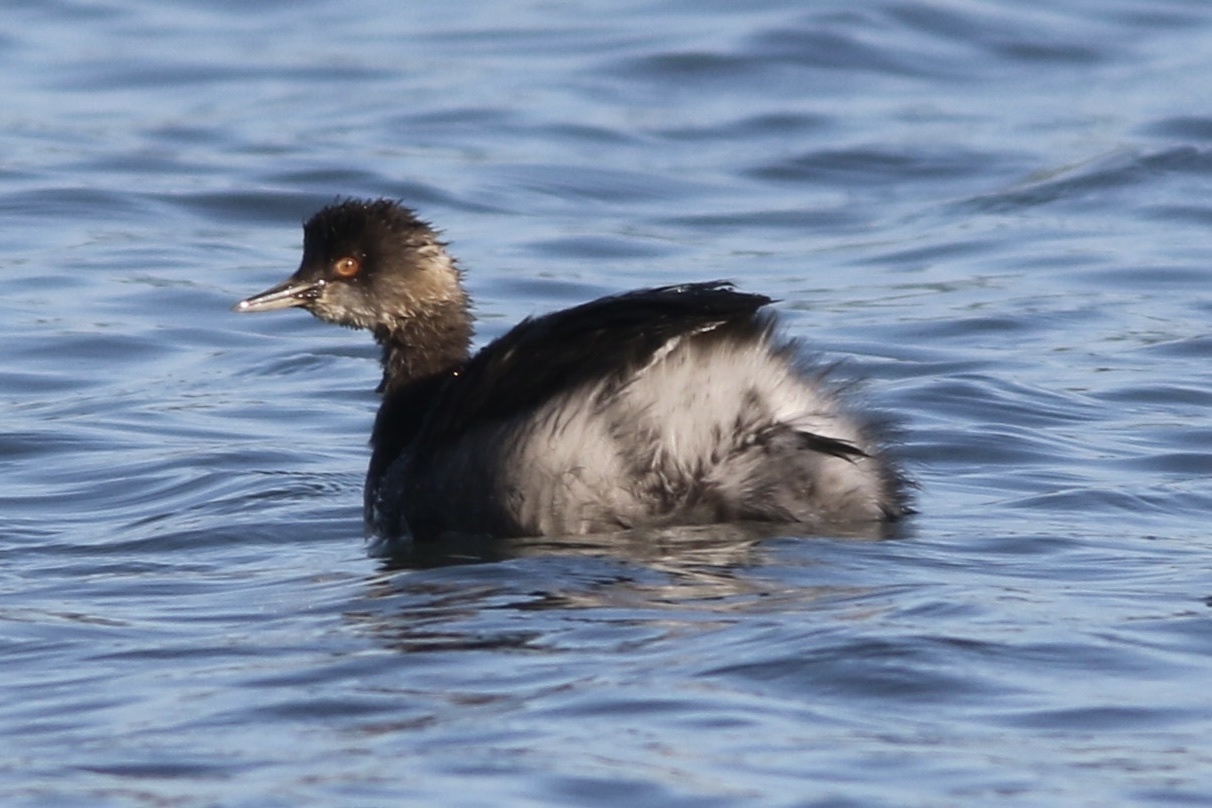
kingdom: Animalia
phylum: Chordata
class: Aves
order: Podicipediformes
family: Podicipedidae
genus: Podiceps
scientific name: Podiceps nigricollis
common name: Black-necked grebe
